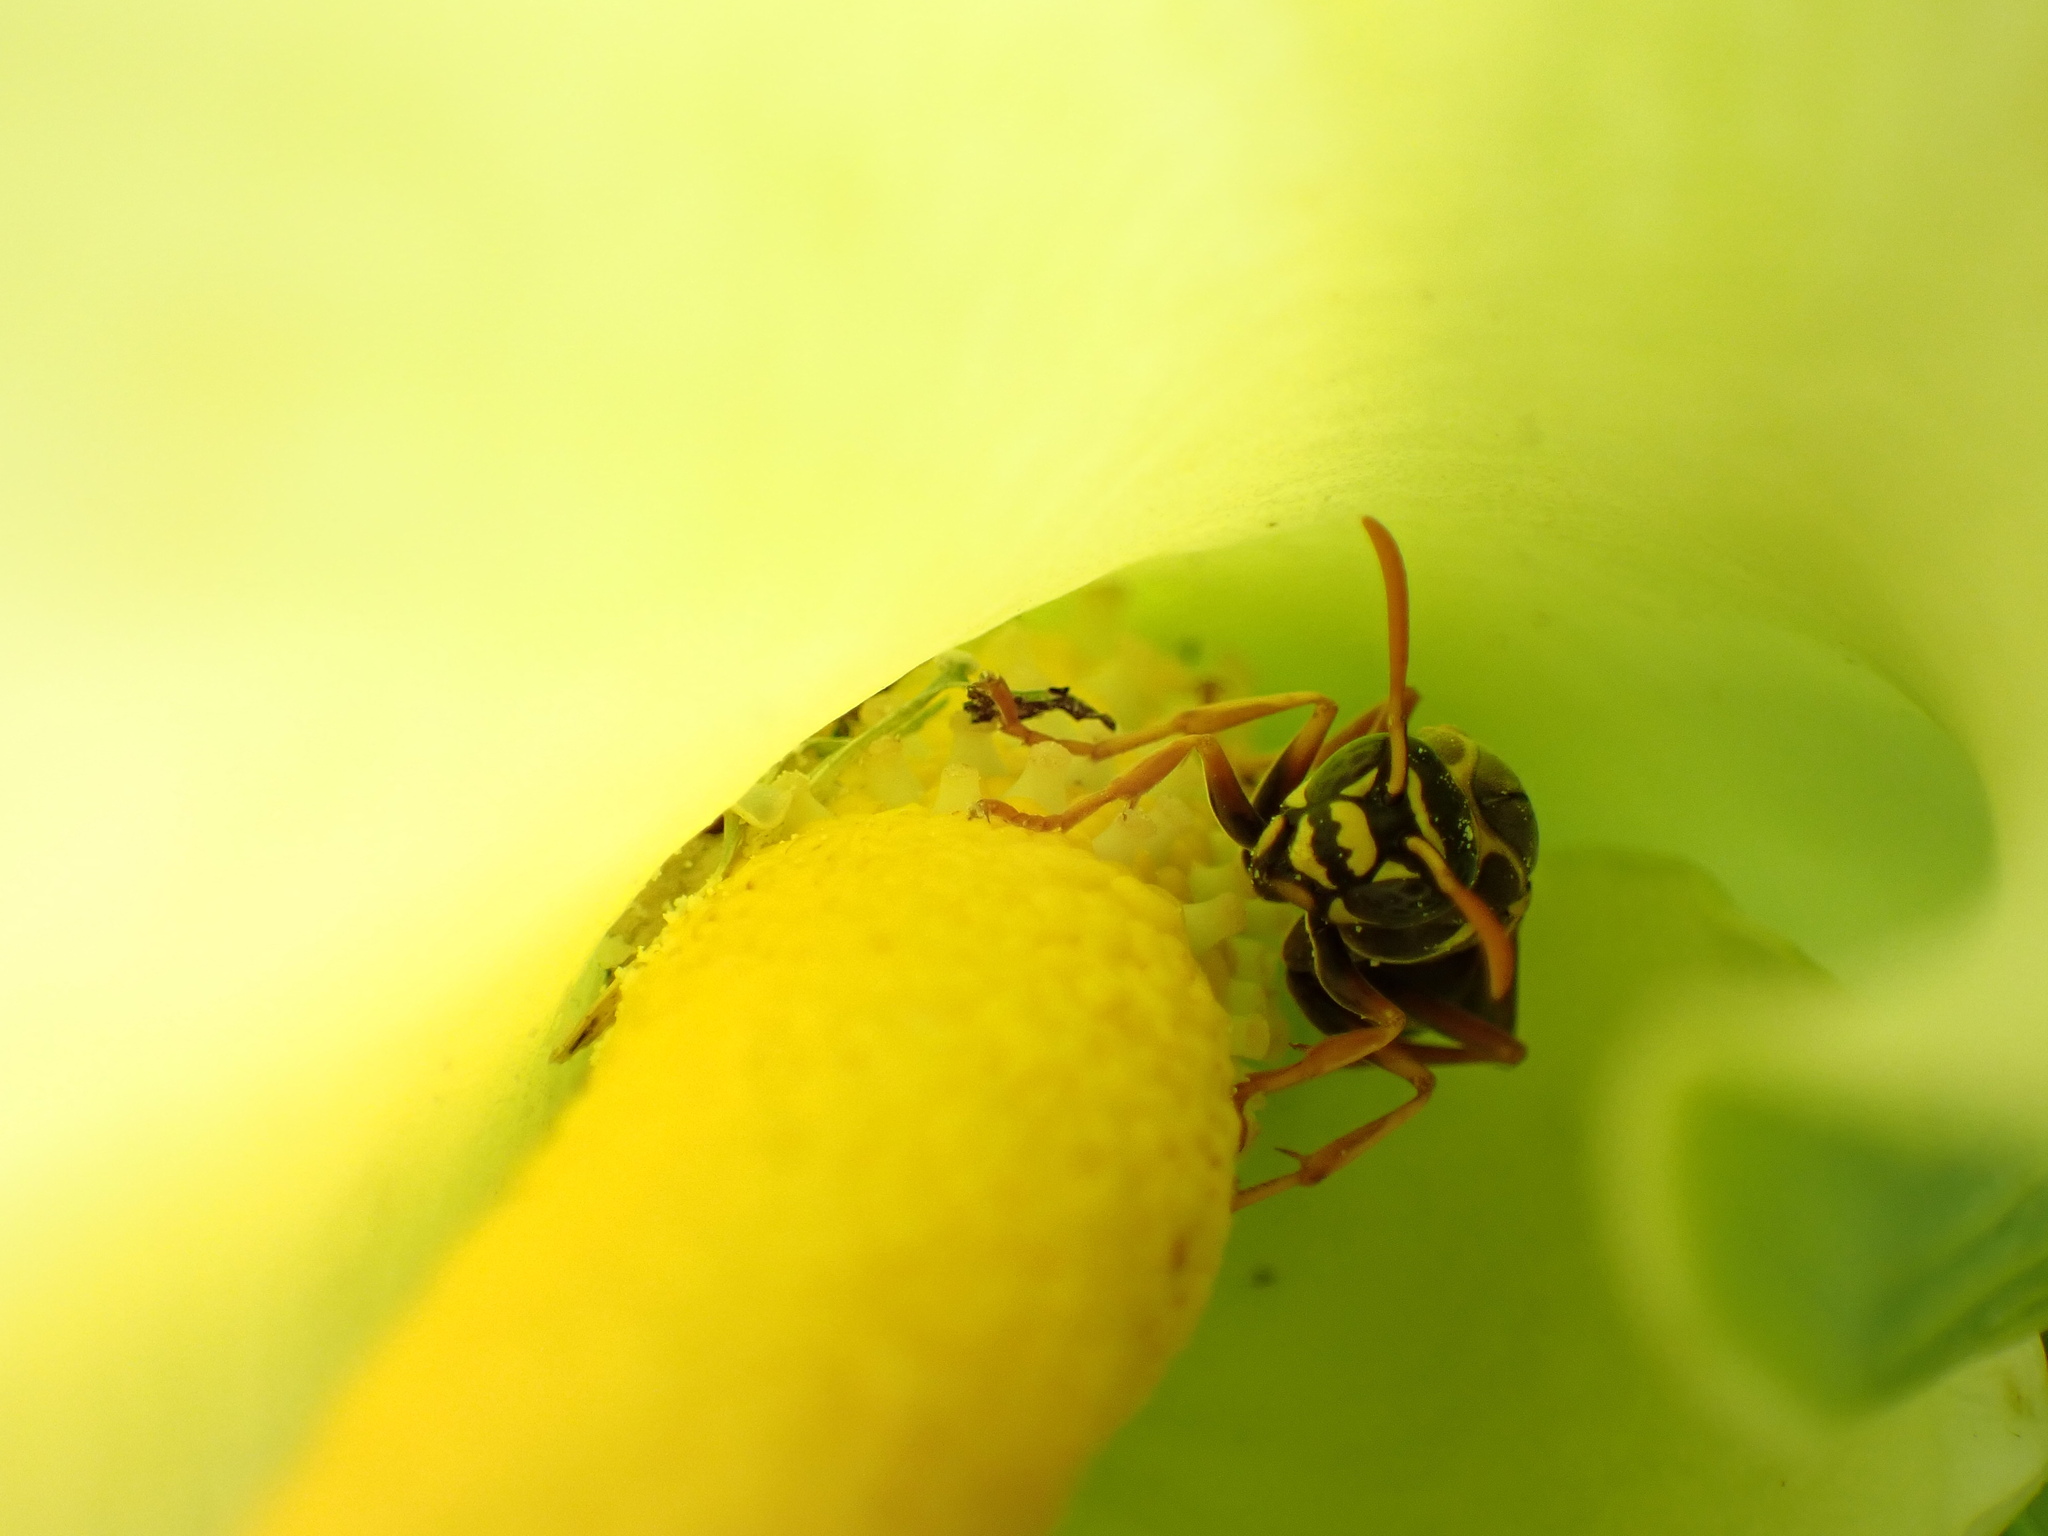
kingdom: Animalia
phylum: Arthropoda
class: Insecta
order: Hymenoptera
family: Eumenidae
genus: Polistes
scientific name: Polistes chinensis
